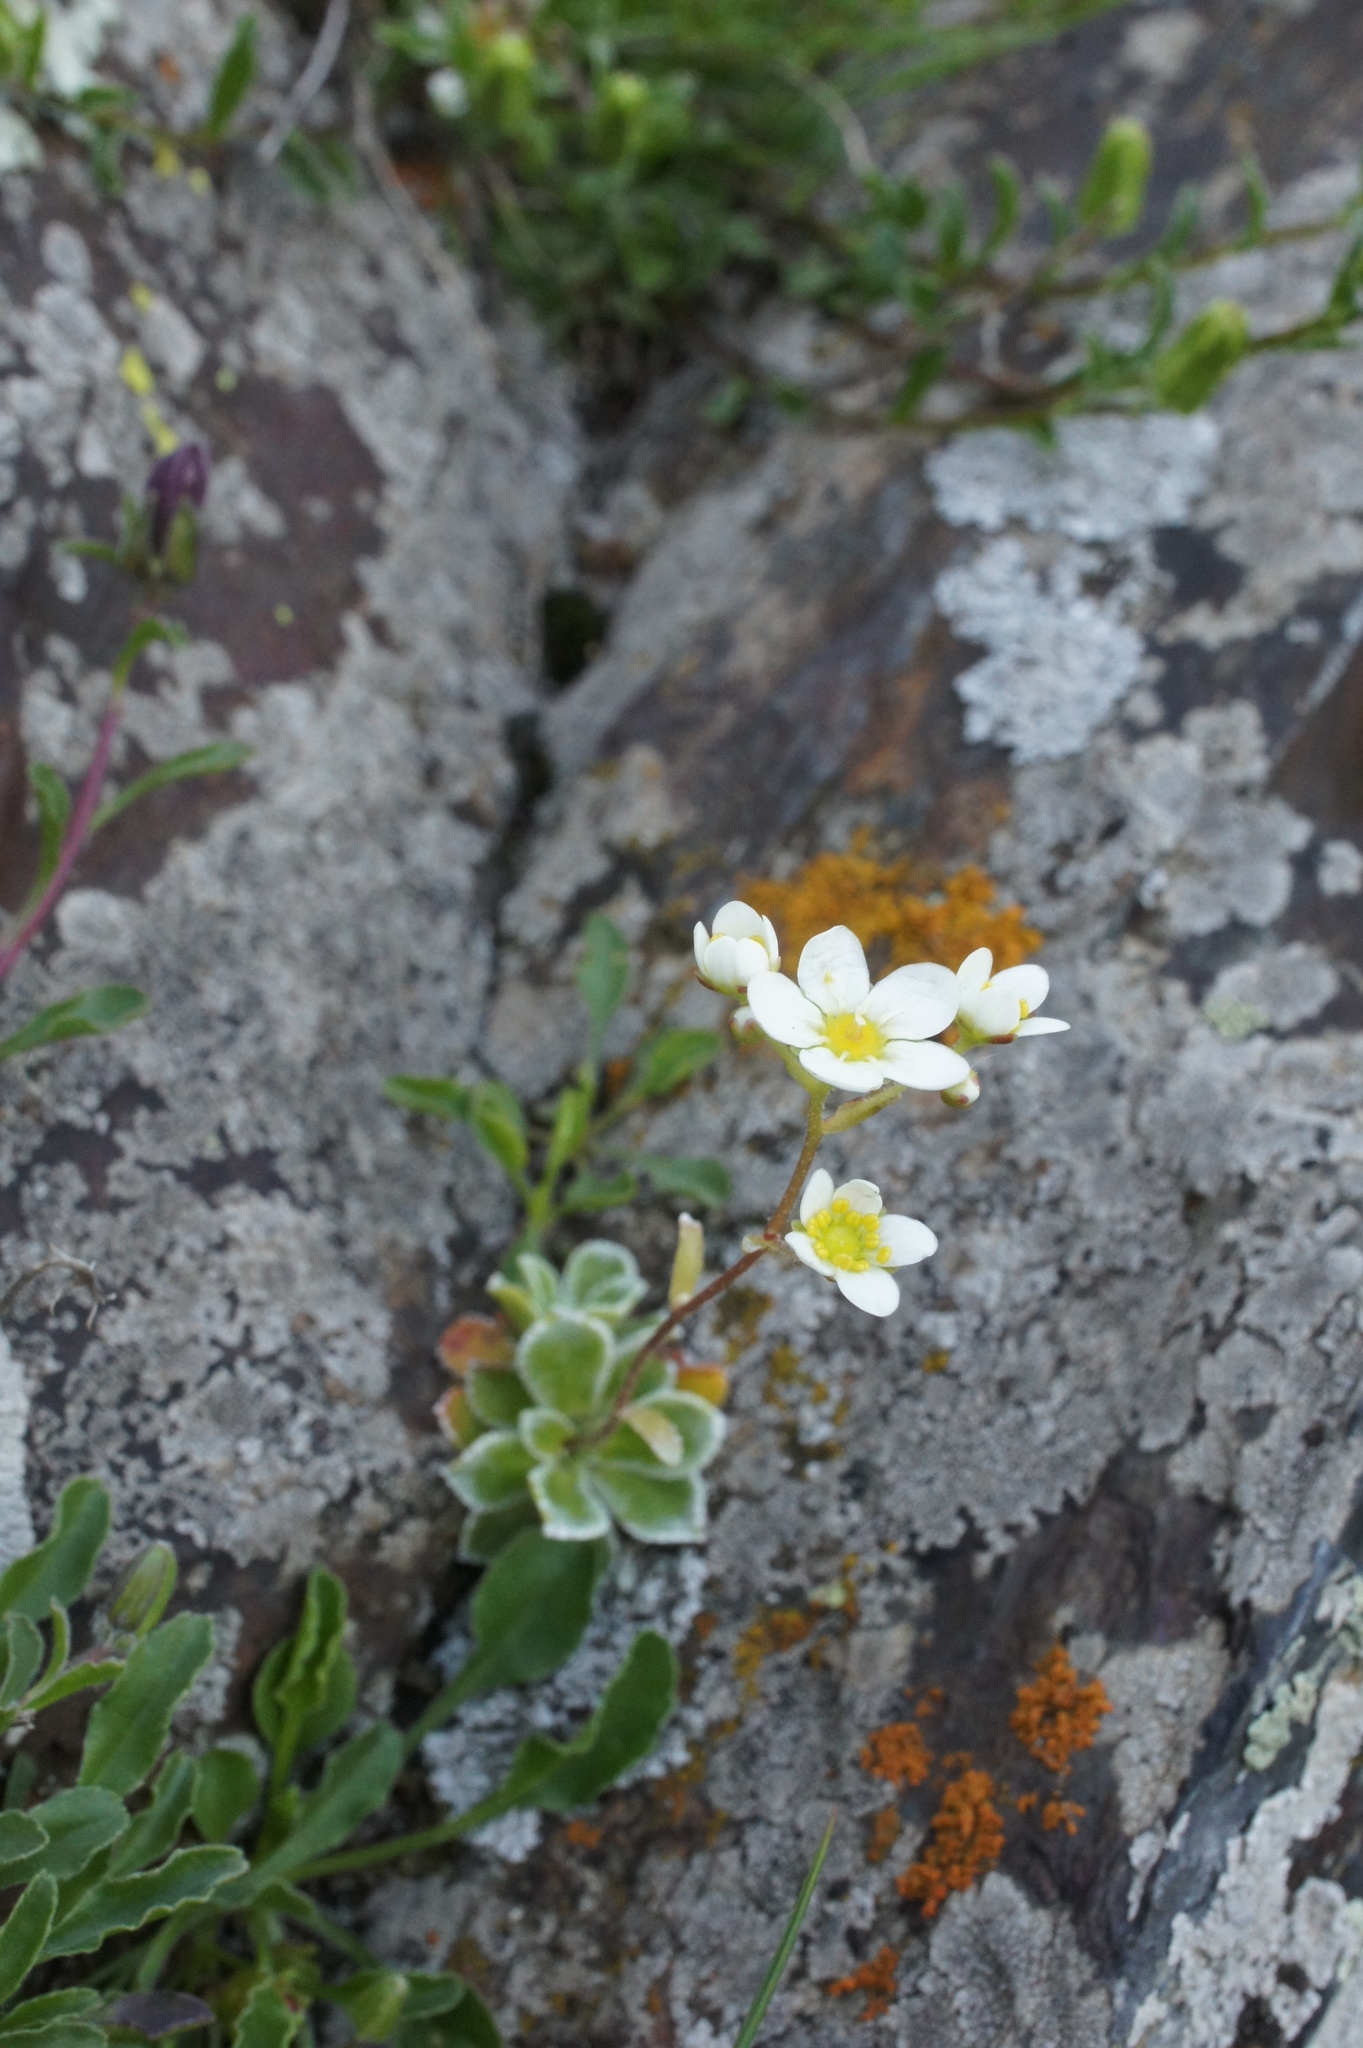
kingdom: Plantae
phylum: Tracheophyta
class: Magnoliopsida
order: Saxifragales
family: Saxifragaceae
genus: Saxifraga
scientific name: Saxifraga paniculata
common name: Livelong saxifrage
